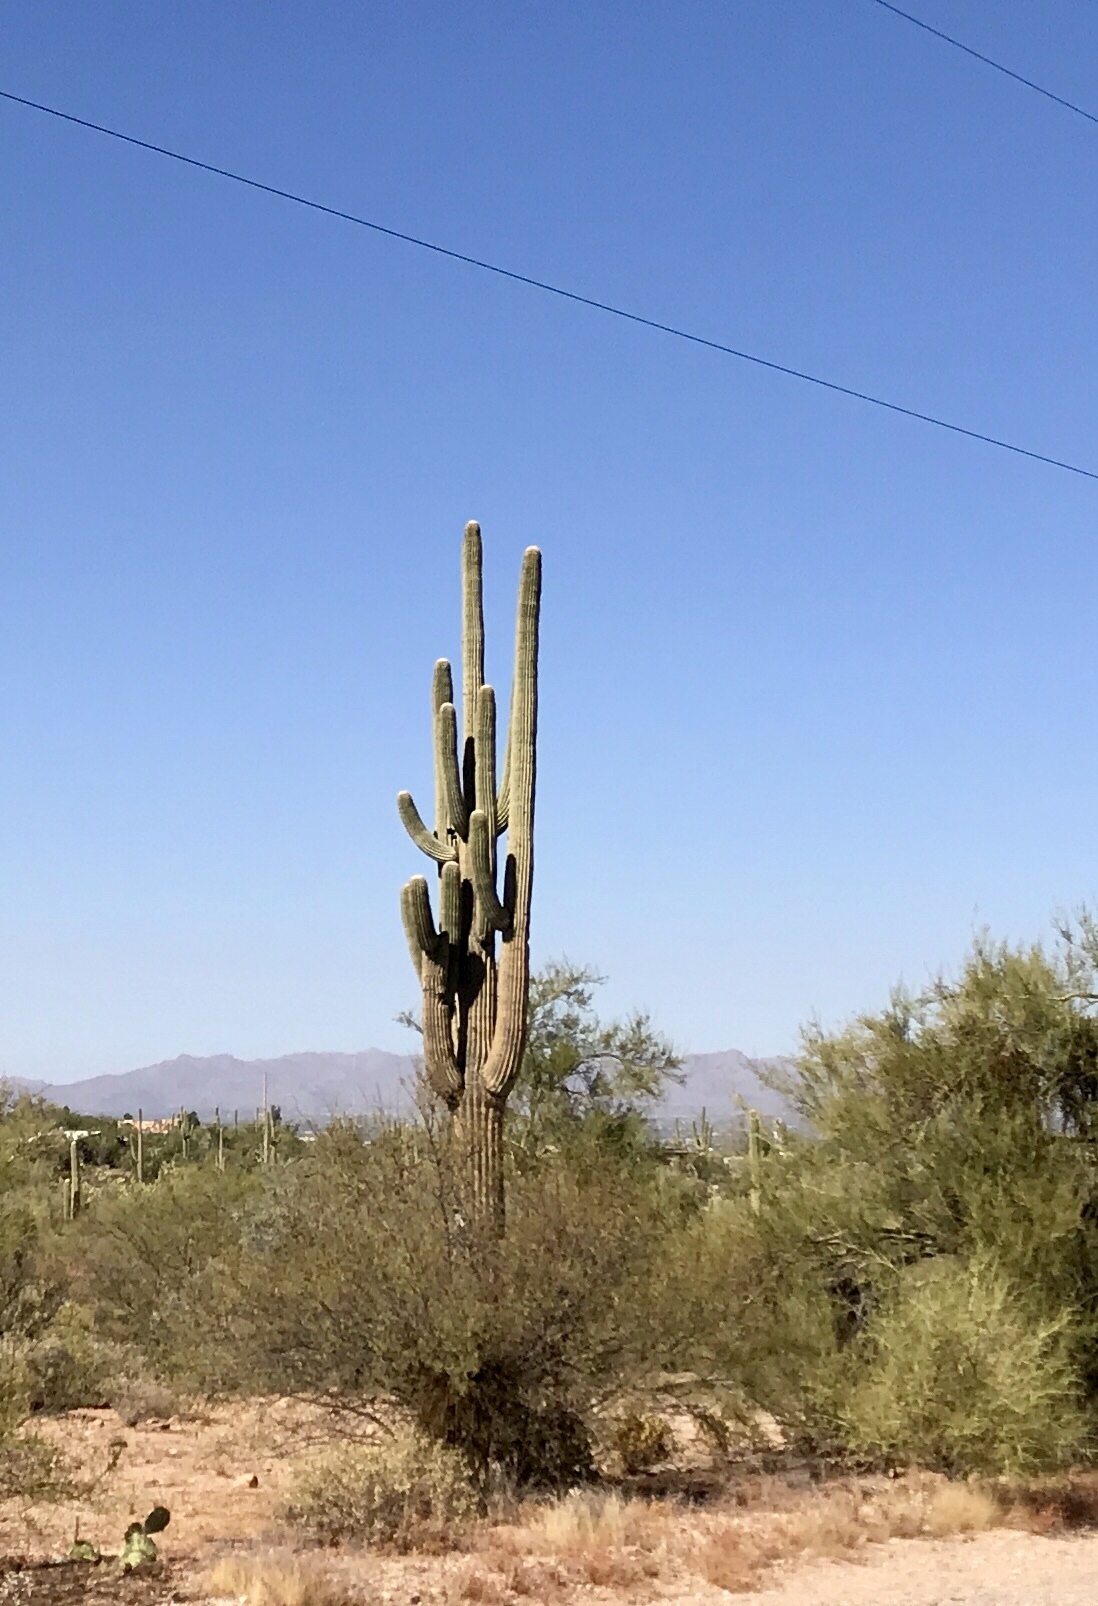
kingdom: Plantae
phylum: Tracheophyta
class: Magnoliopsida
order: Caryophyllales
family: Cactaceae
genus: Carnegiea
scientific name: Carnegiea gigantea
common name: Saguaro
